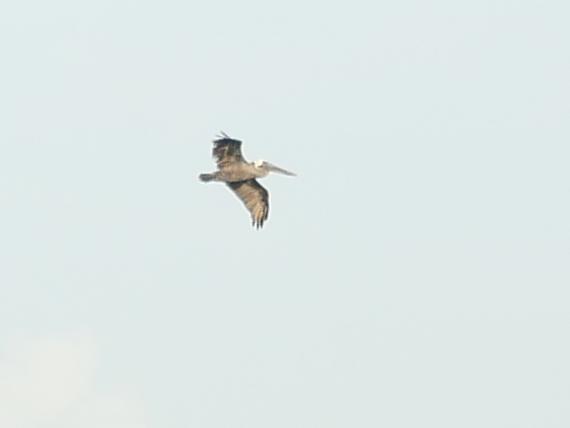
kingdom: Animalia
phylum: Chordata
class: Aves
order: Pelecaniformes
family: Pelecanidae
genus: Pelecanus
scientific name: Pelecanus occidentalis
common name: Brown pelican
